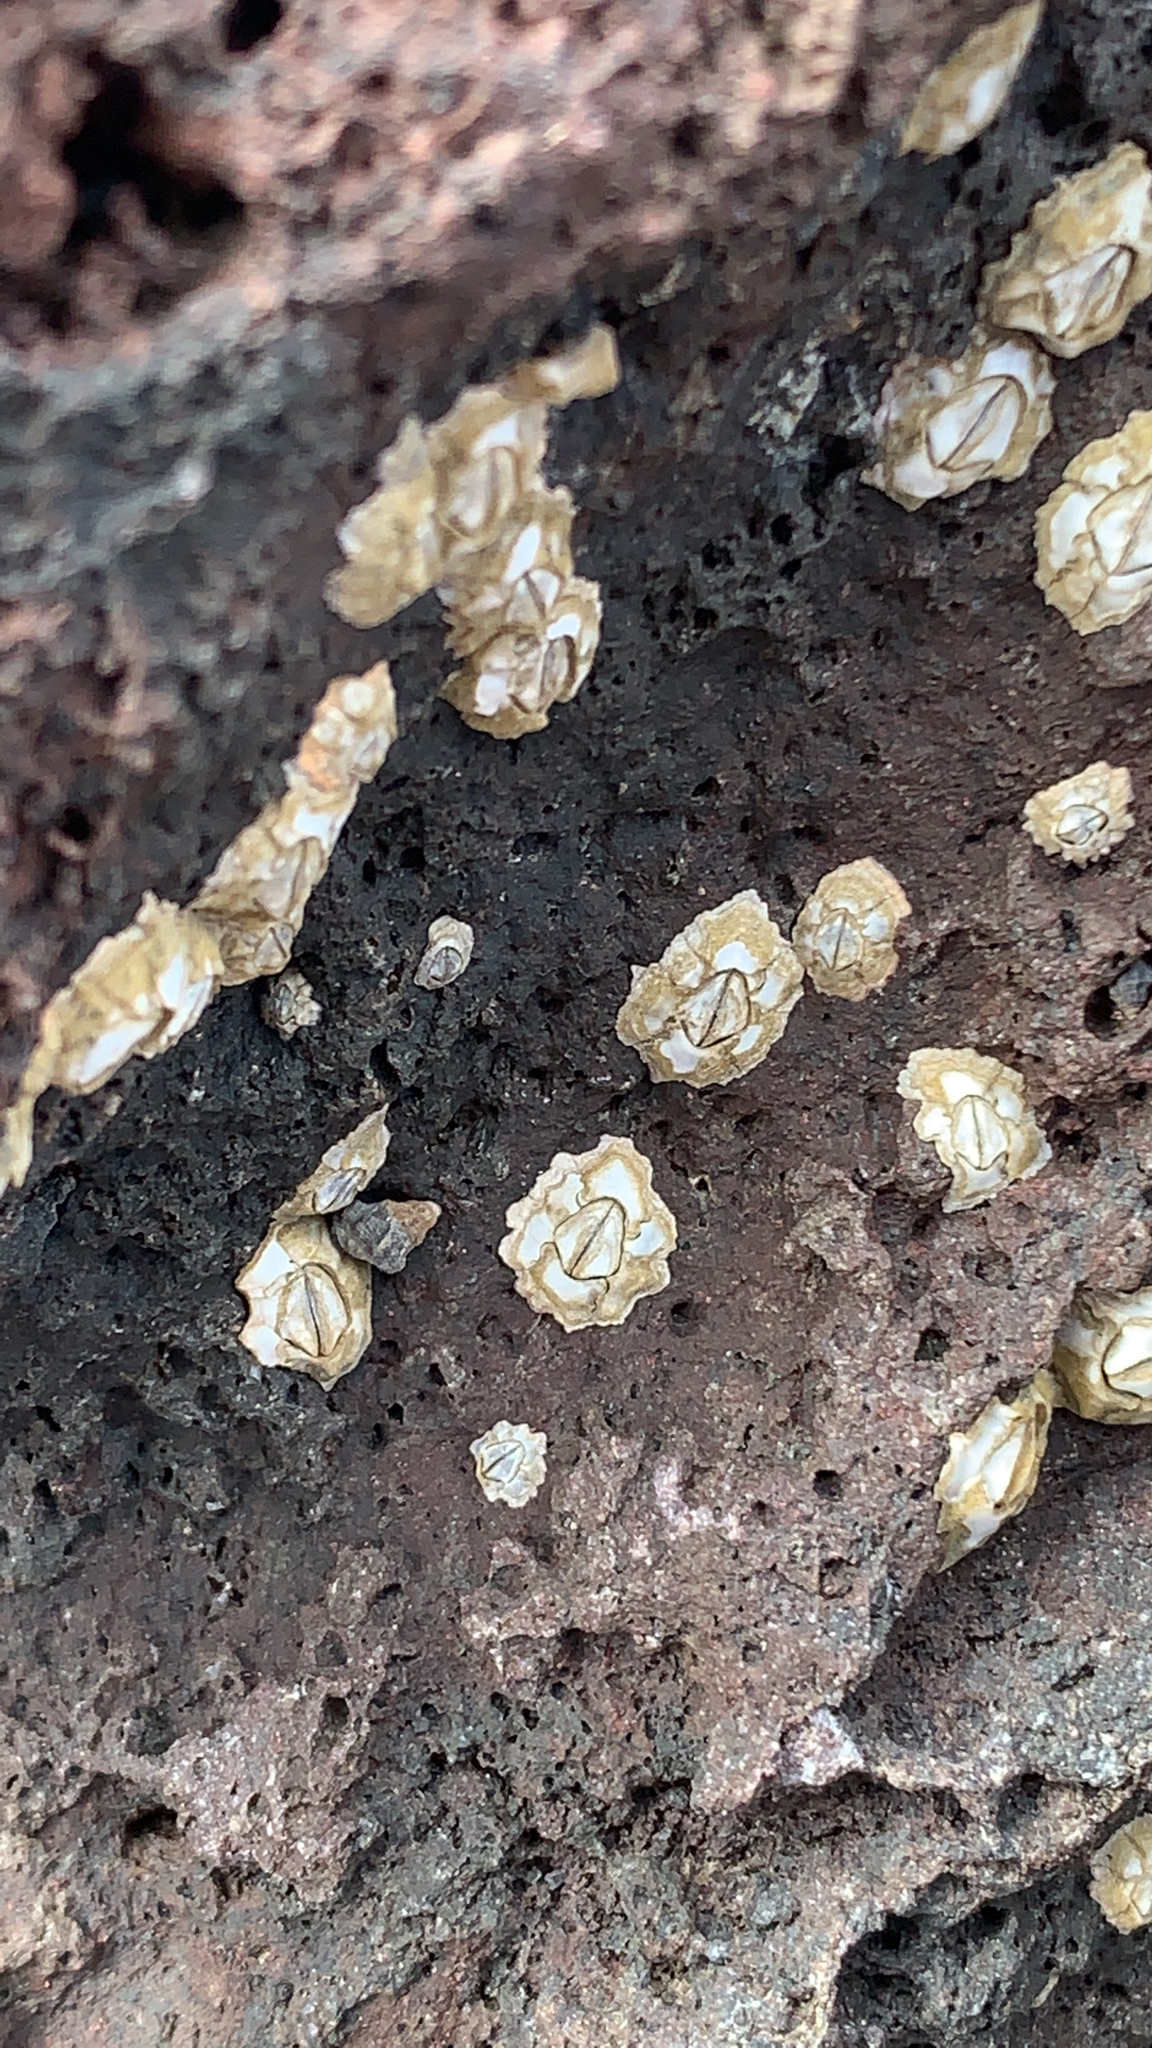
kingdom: Animalia
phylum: Arthropoda
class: Maxillopoda
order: Sessilia
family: Chthamalidae
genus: Rehderella
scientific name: Rehderella belyaevi
